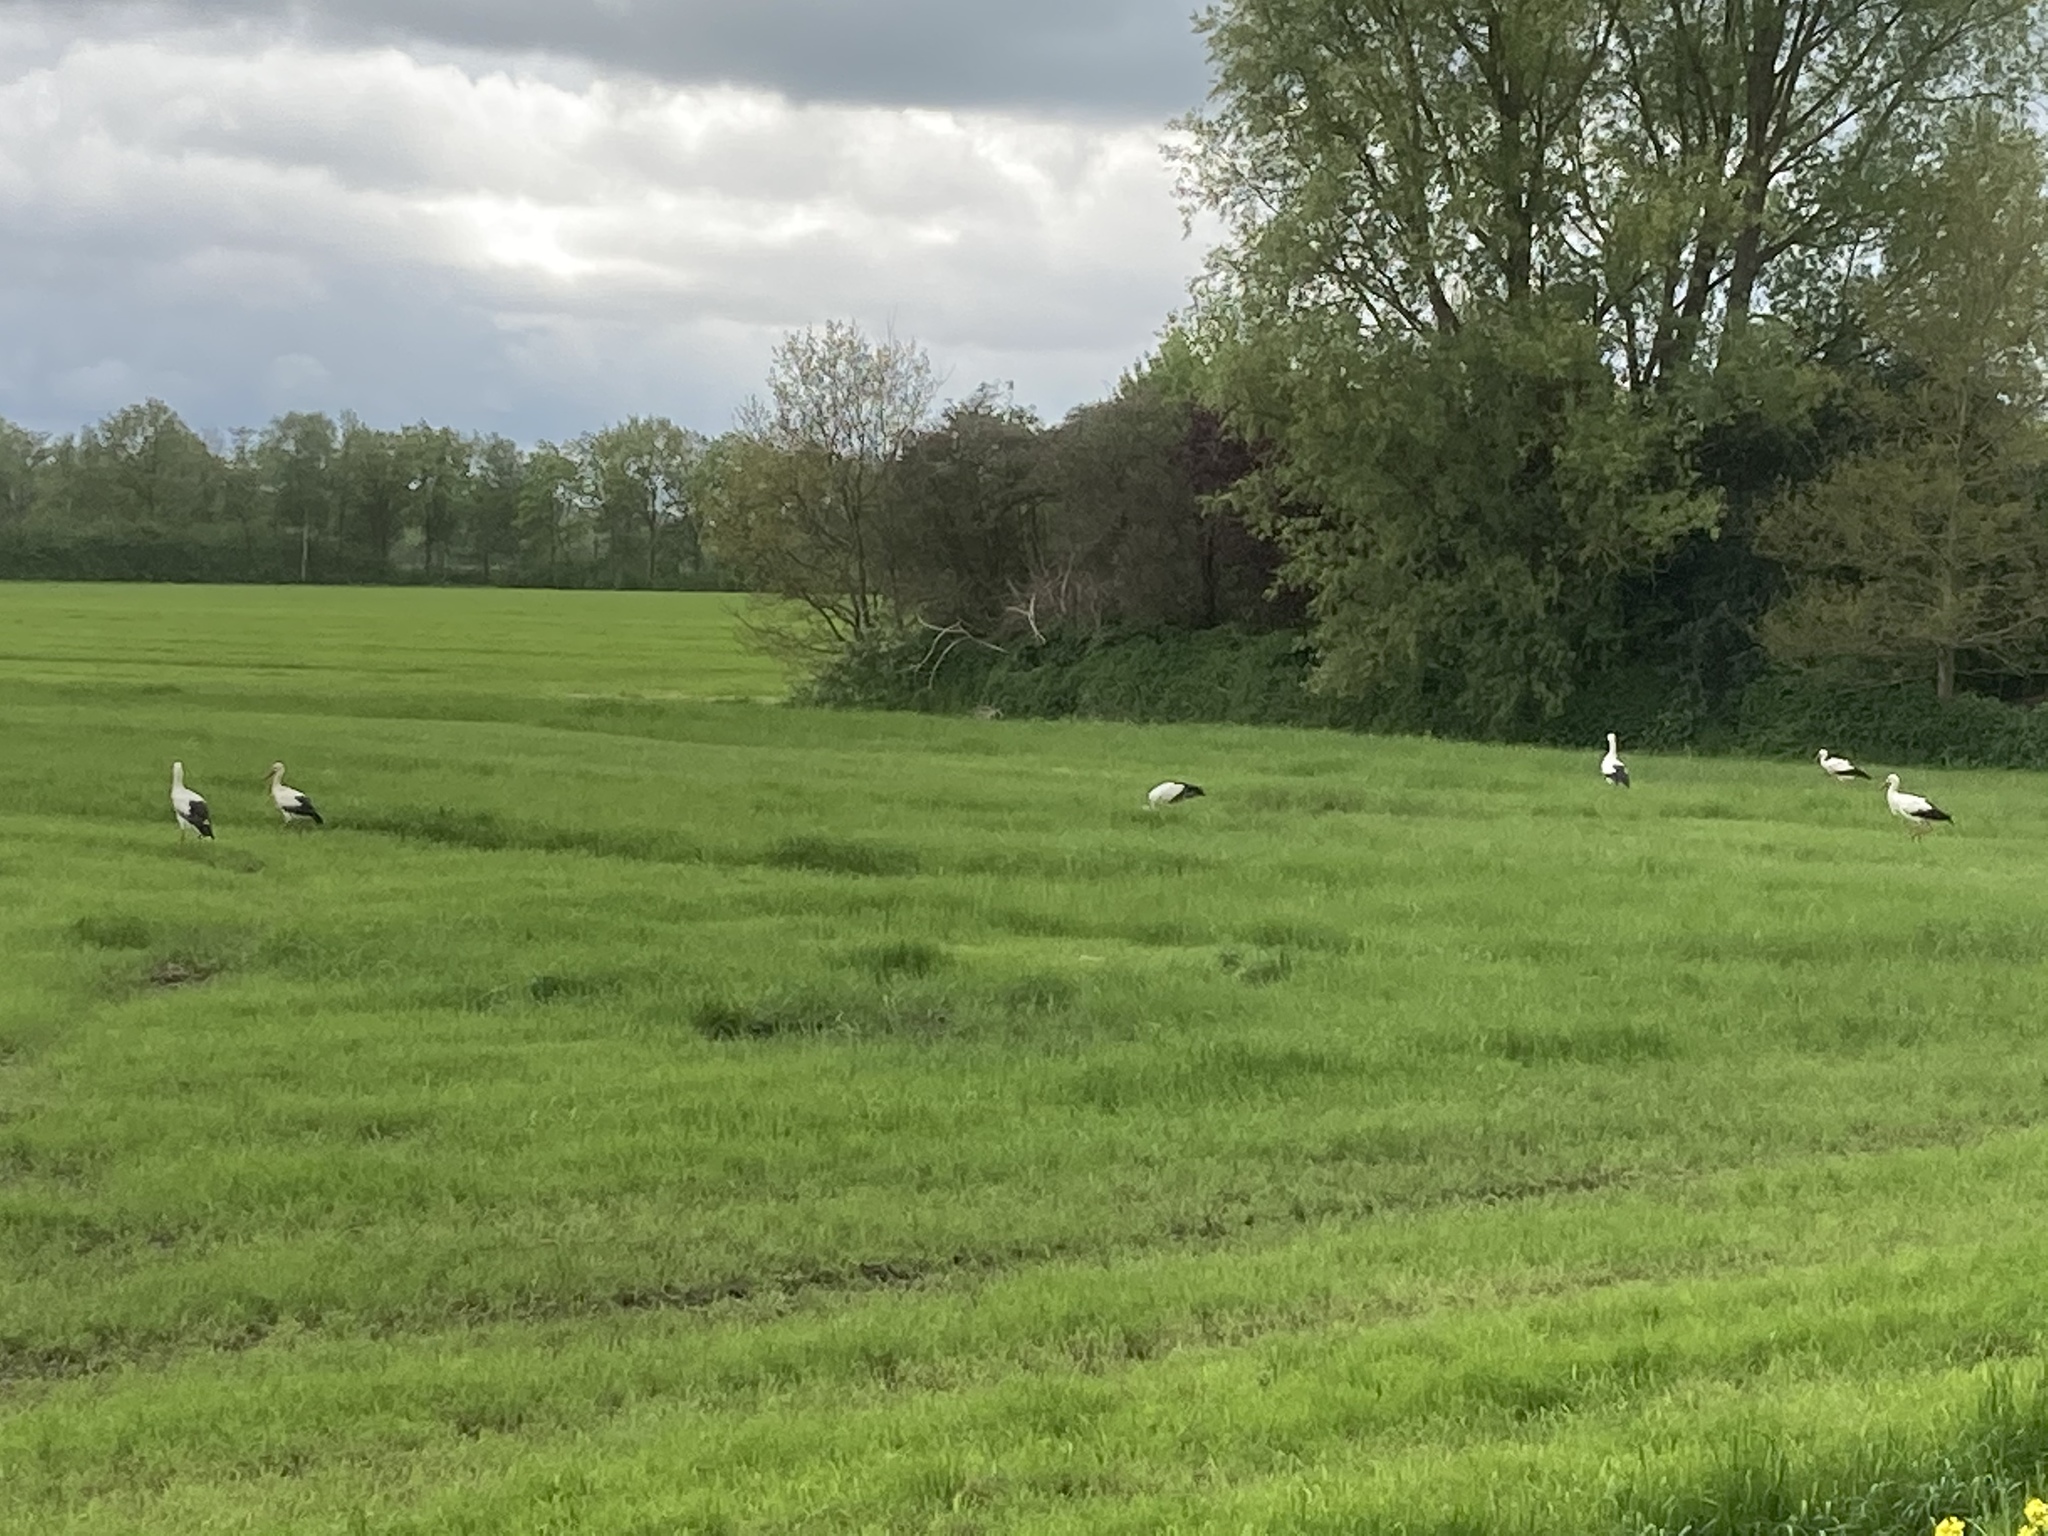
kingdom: Animalia
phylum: Chordata
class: Aves
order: Ciconiiformes
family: Ciconiidae
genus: Ciconia
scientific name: Ciconia ciconia
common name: White stork
